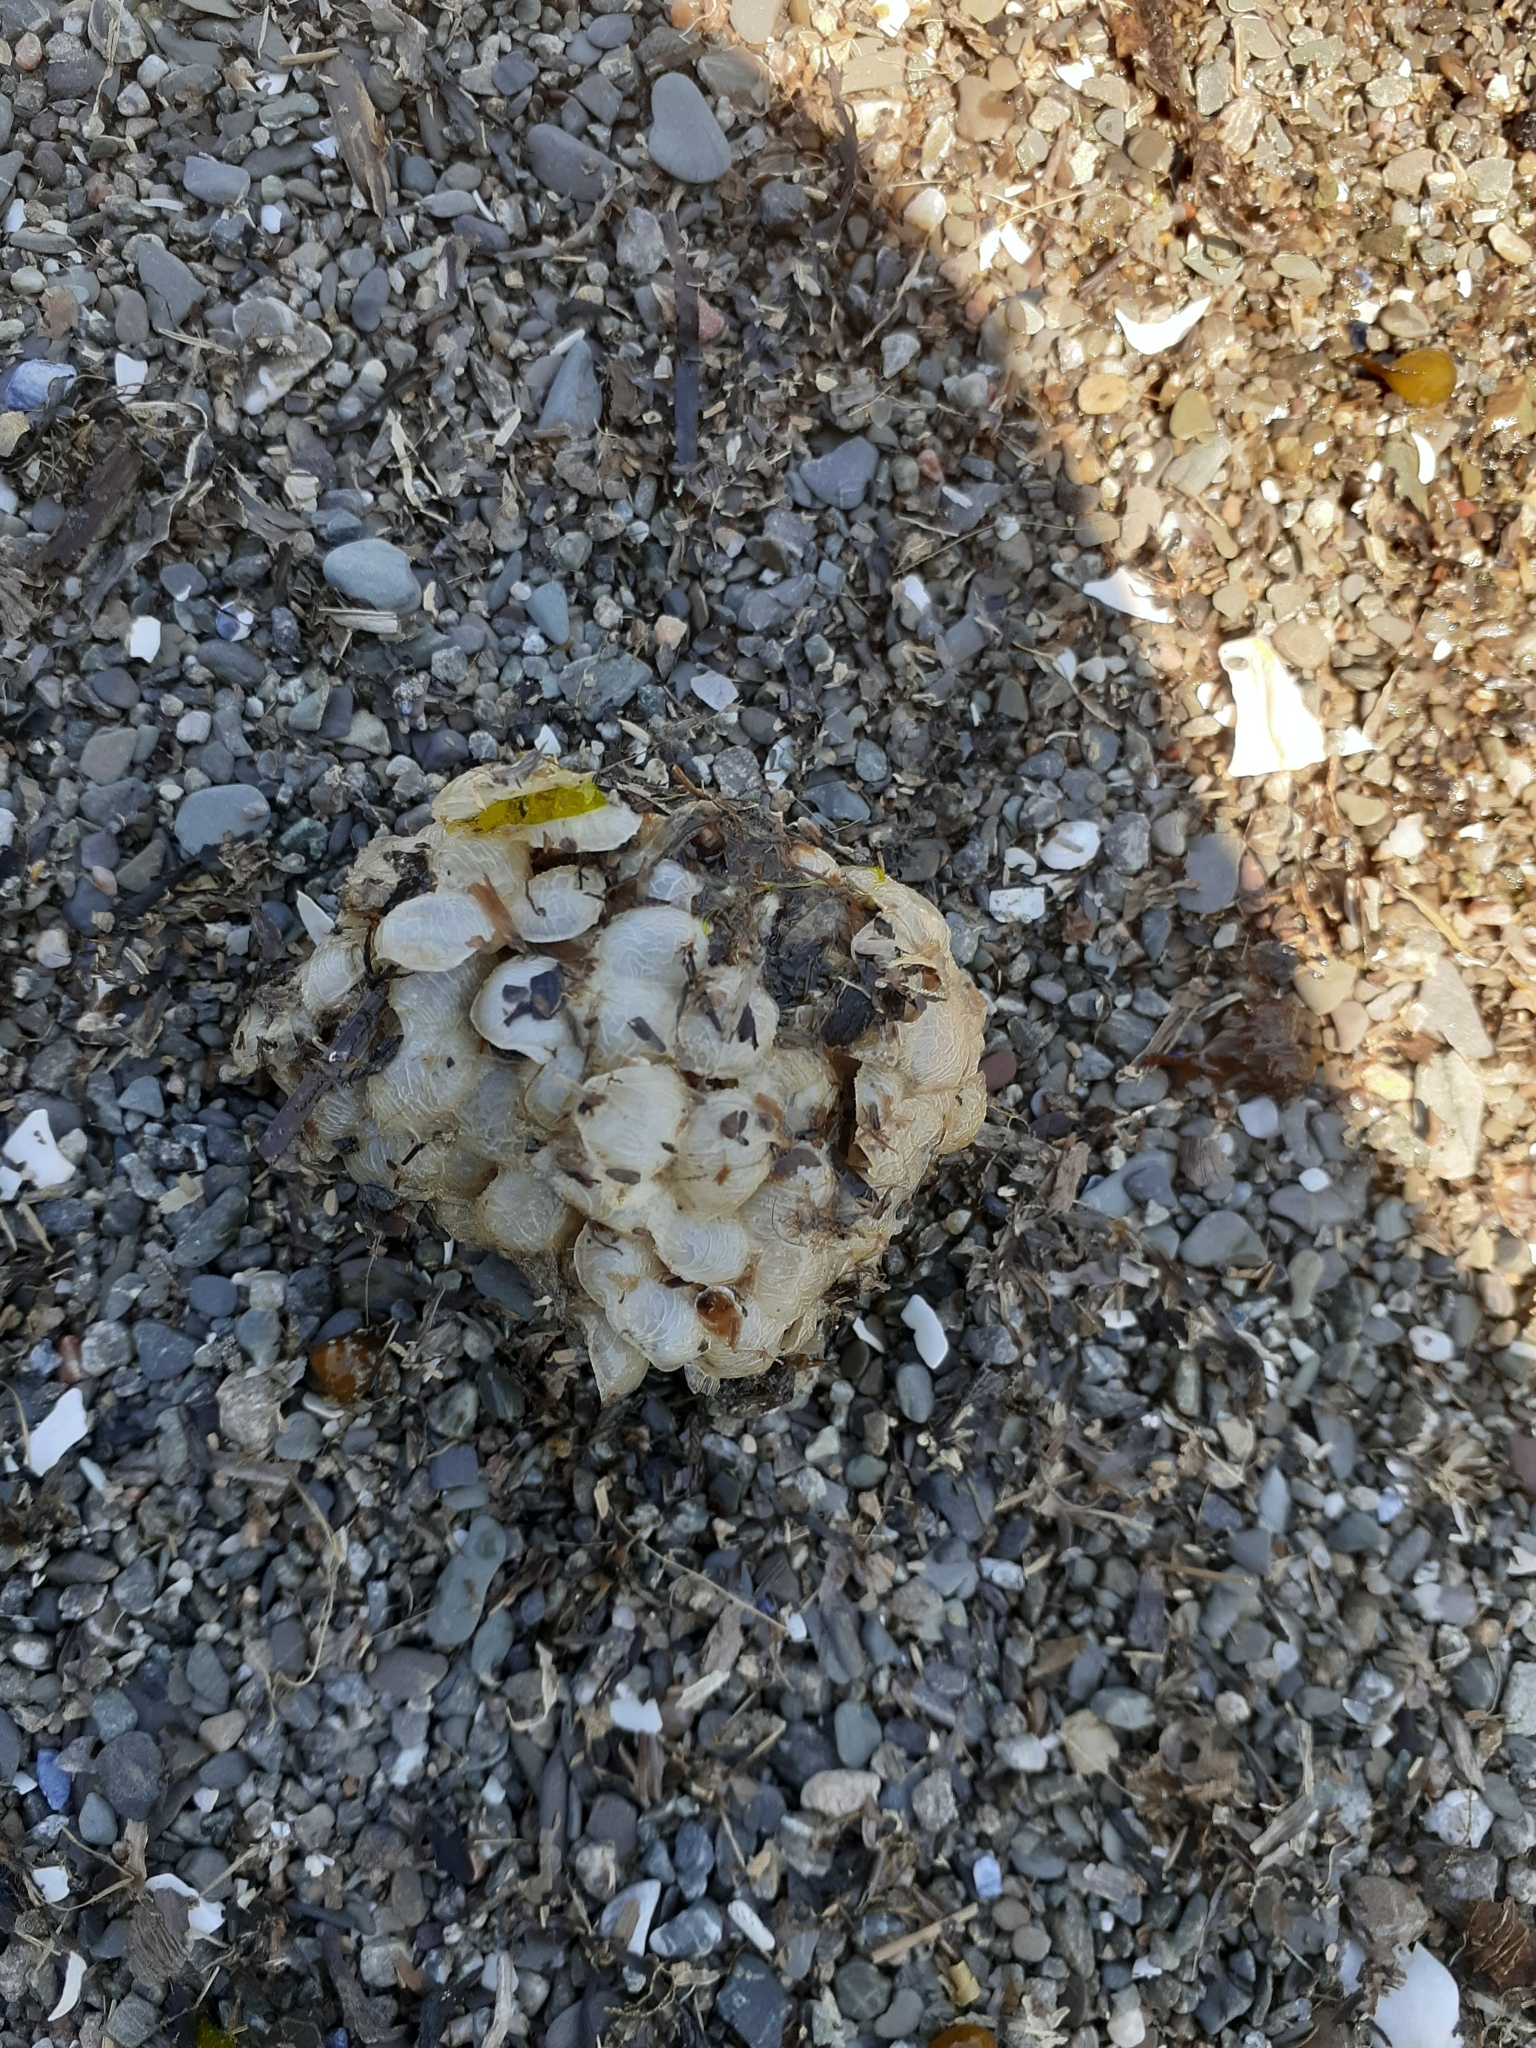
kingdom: Animalia
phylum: Mollusca
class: Gastropoda
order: Neogastropoda
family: Buccinidae
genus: Buccinum
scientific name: Buccinum undatum
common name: Common whelk
